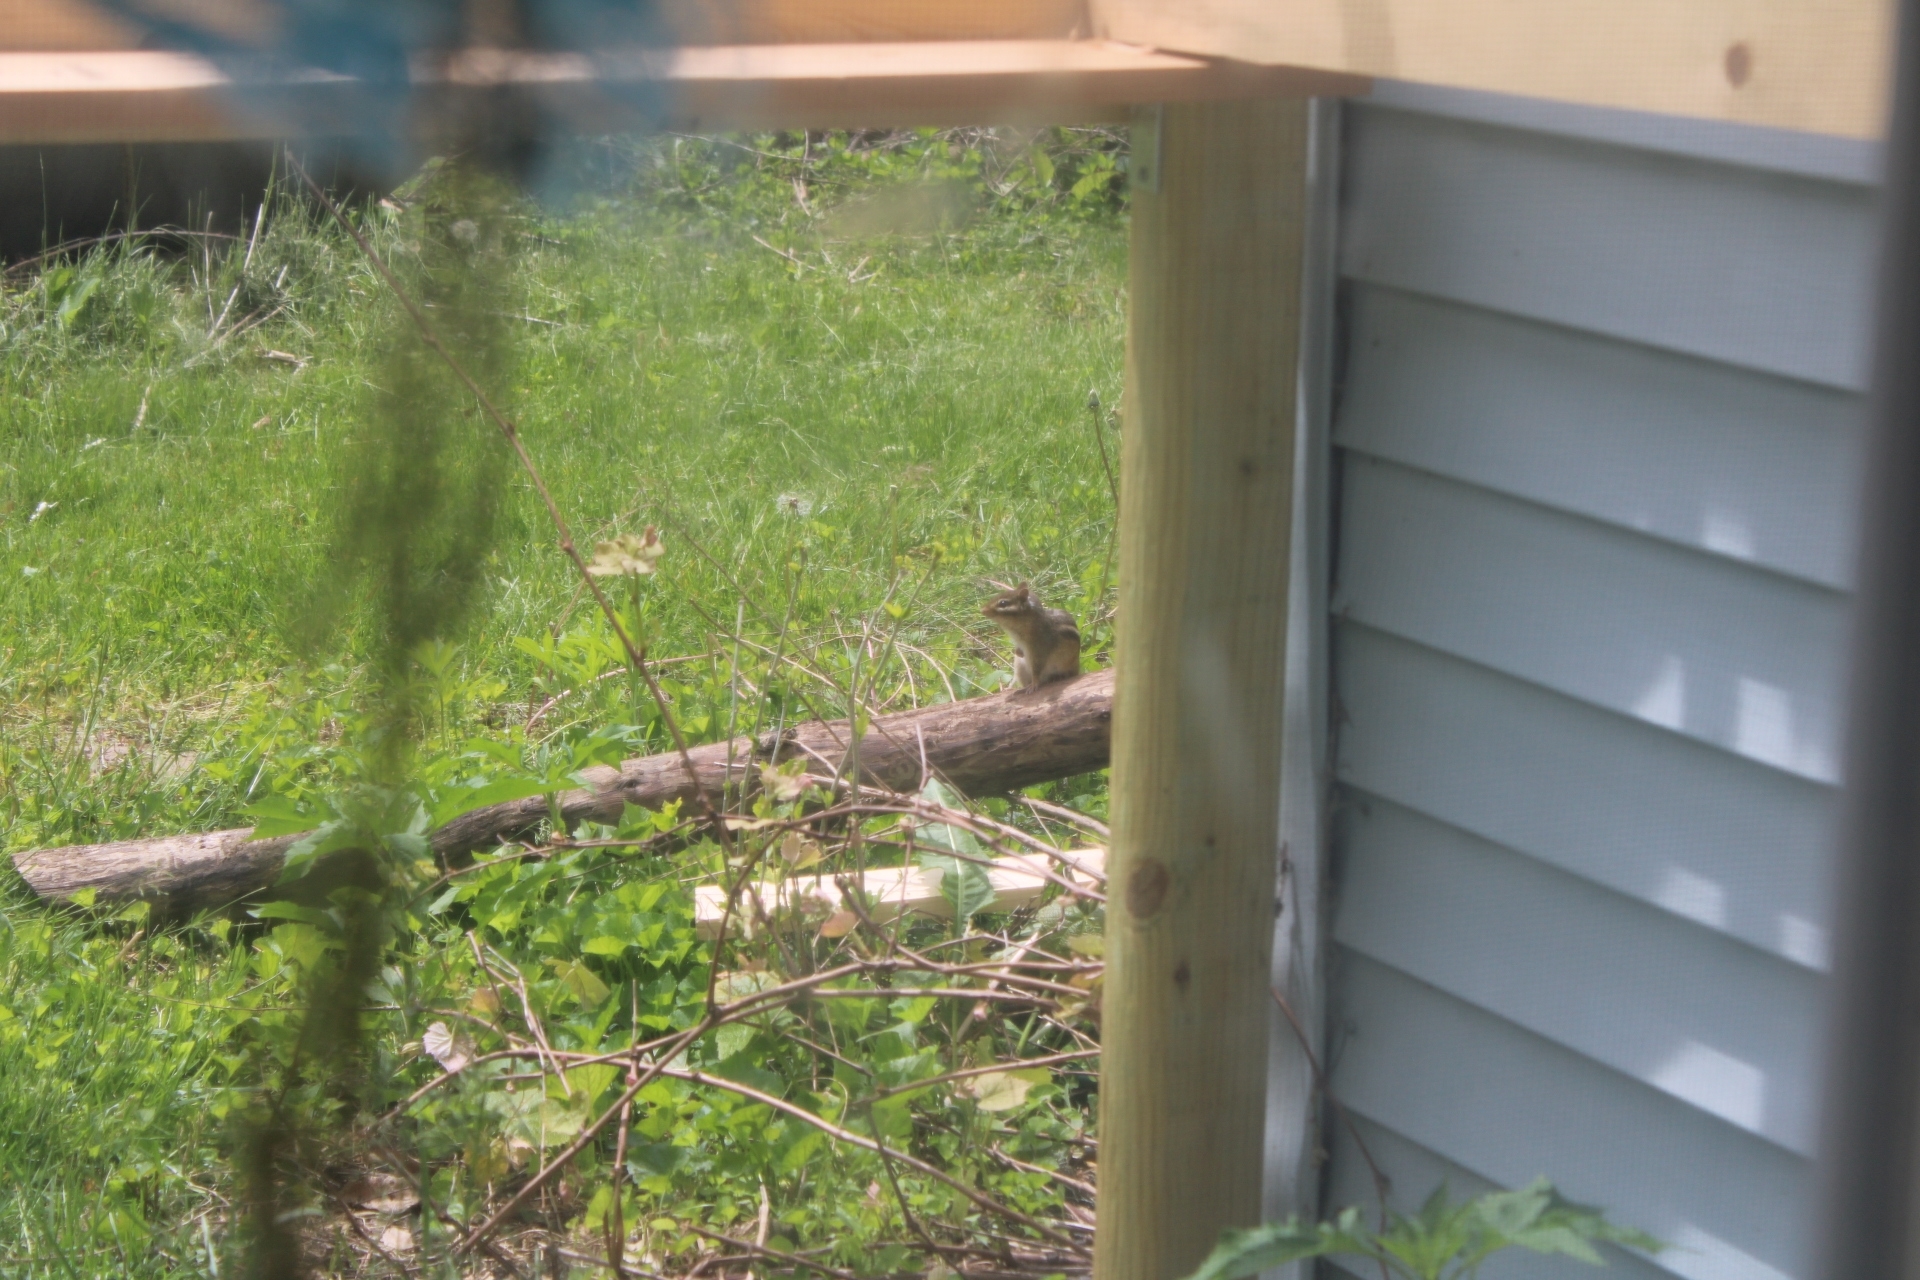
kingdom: Animalia
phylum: Chordata
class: Mammalia
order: Rodentia
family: Sciuridae
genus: Tamias
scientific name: Tamias striatus
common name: Eastern chipmunk
